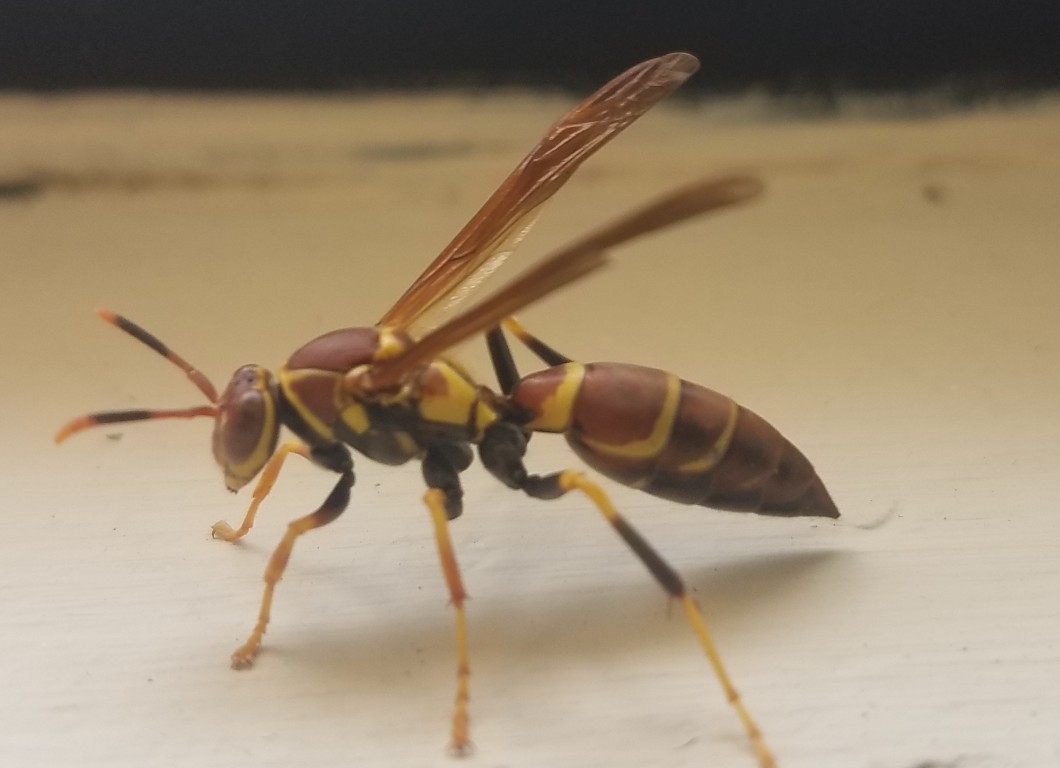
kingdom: Animalia
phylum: Arthropoda
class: Insecta
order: Hymenoptera
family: Eumenidae
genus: Polistes
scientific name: Polistes instabilis
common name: Unstable paper wasp
